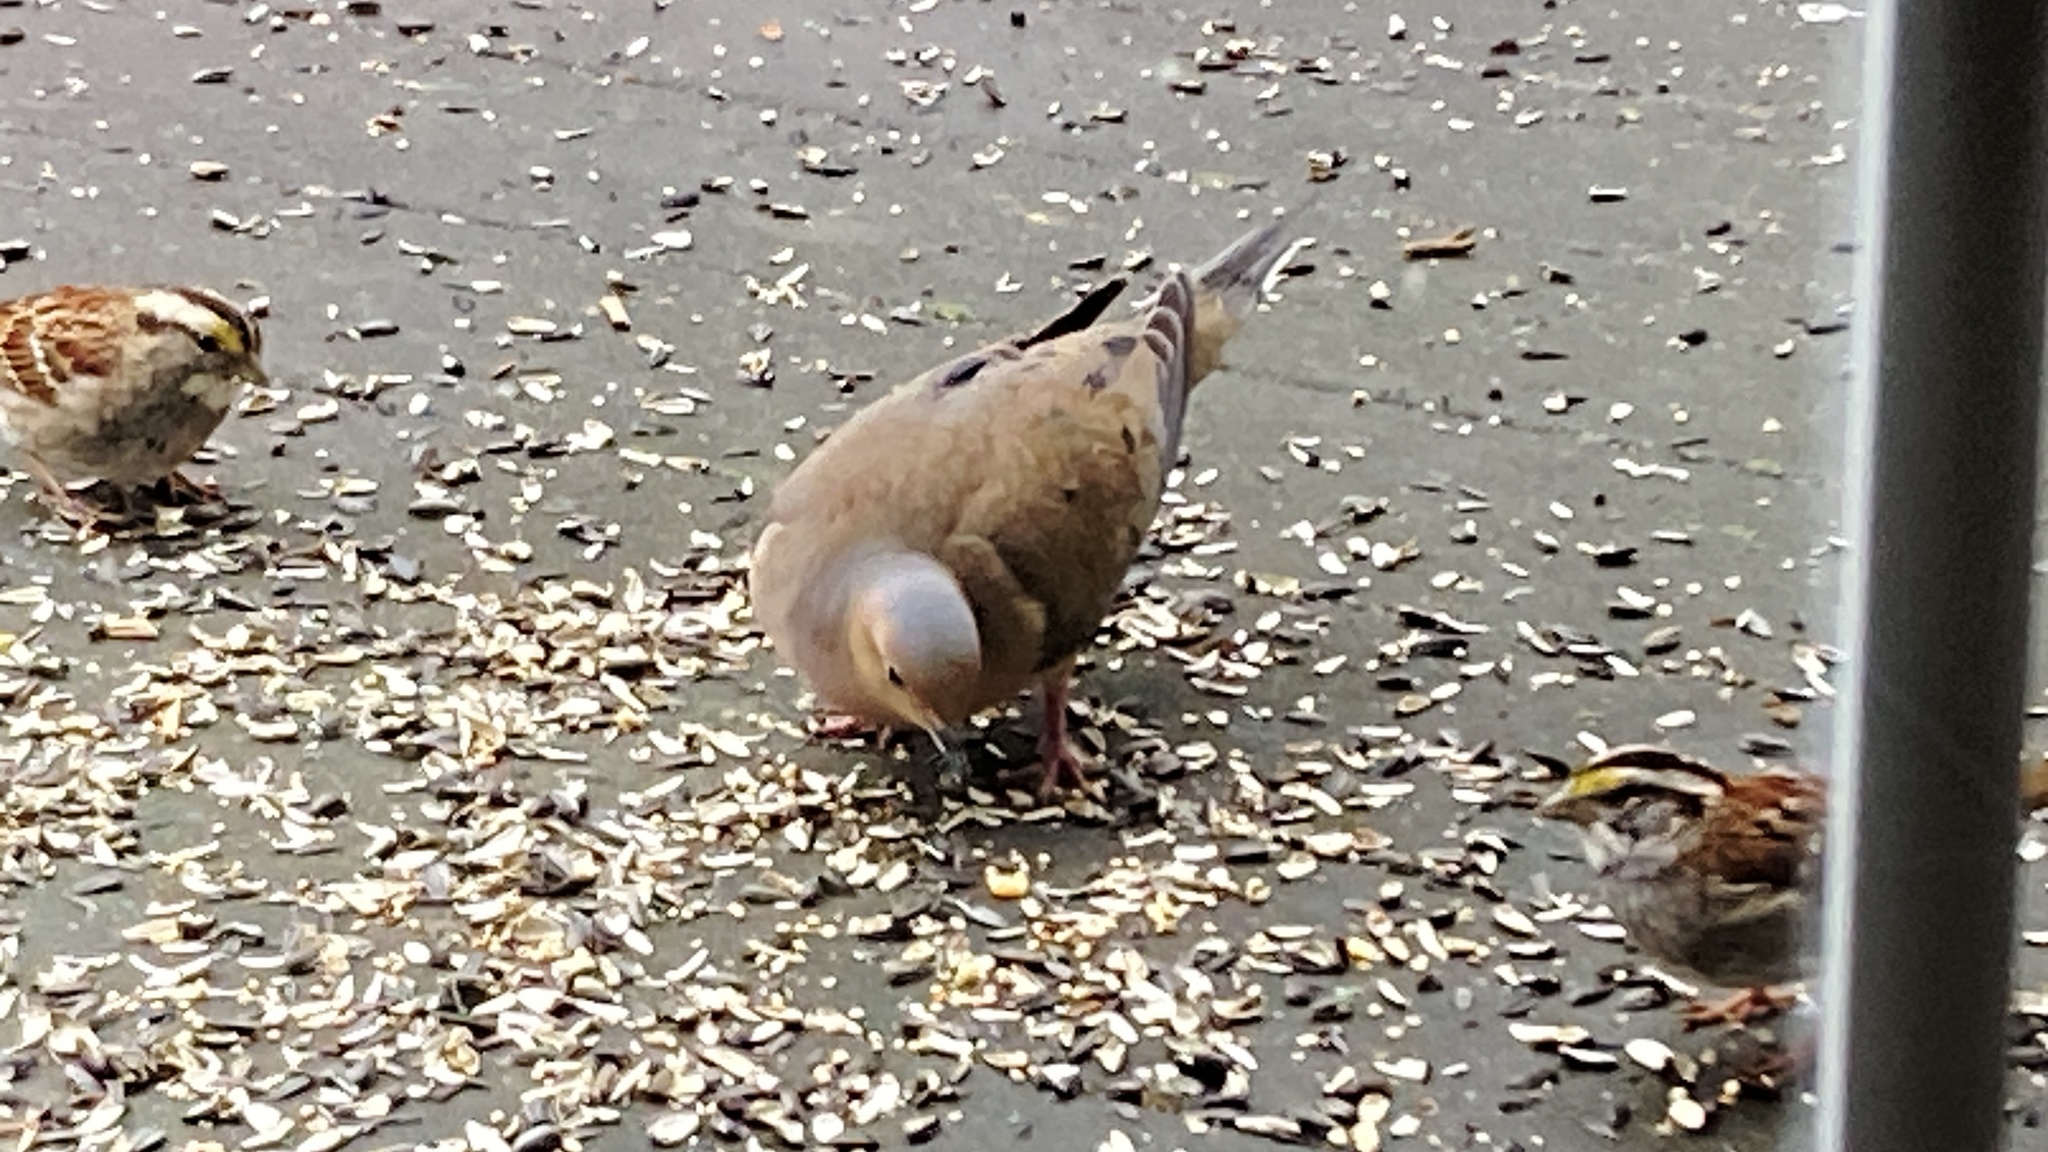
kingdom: Animalia
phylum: Chordata
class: Aves
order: Columbiformes
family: Columbidae
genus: Zenaida
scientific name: Zenaida macroura
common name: Mourning dove
